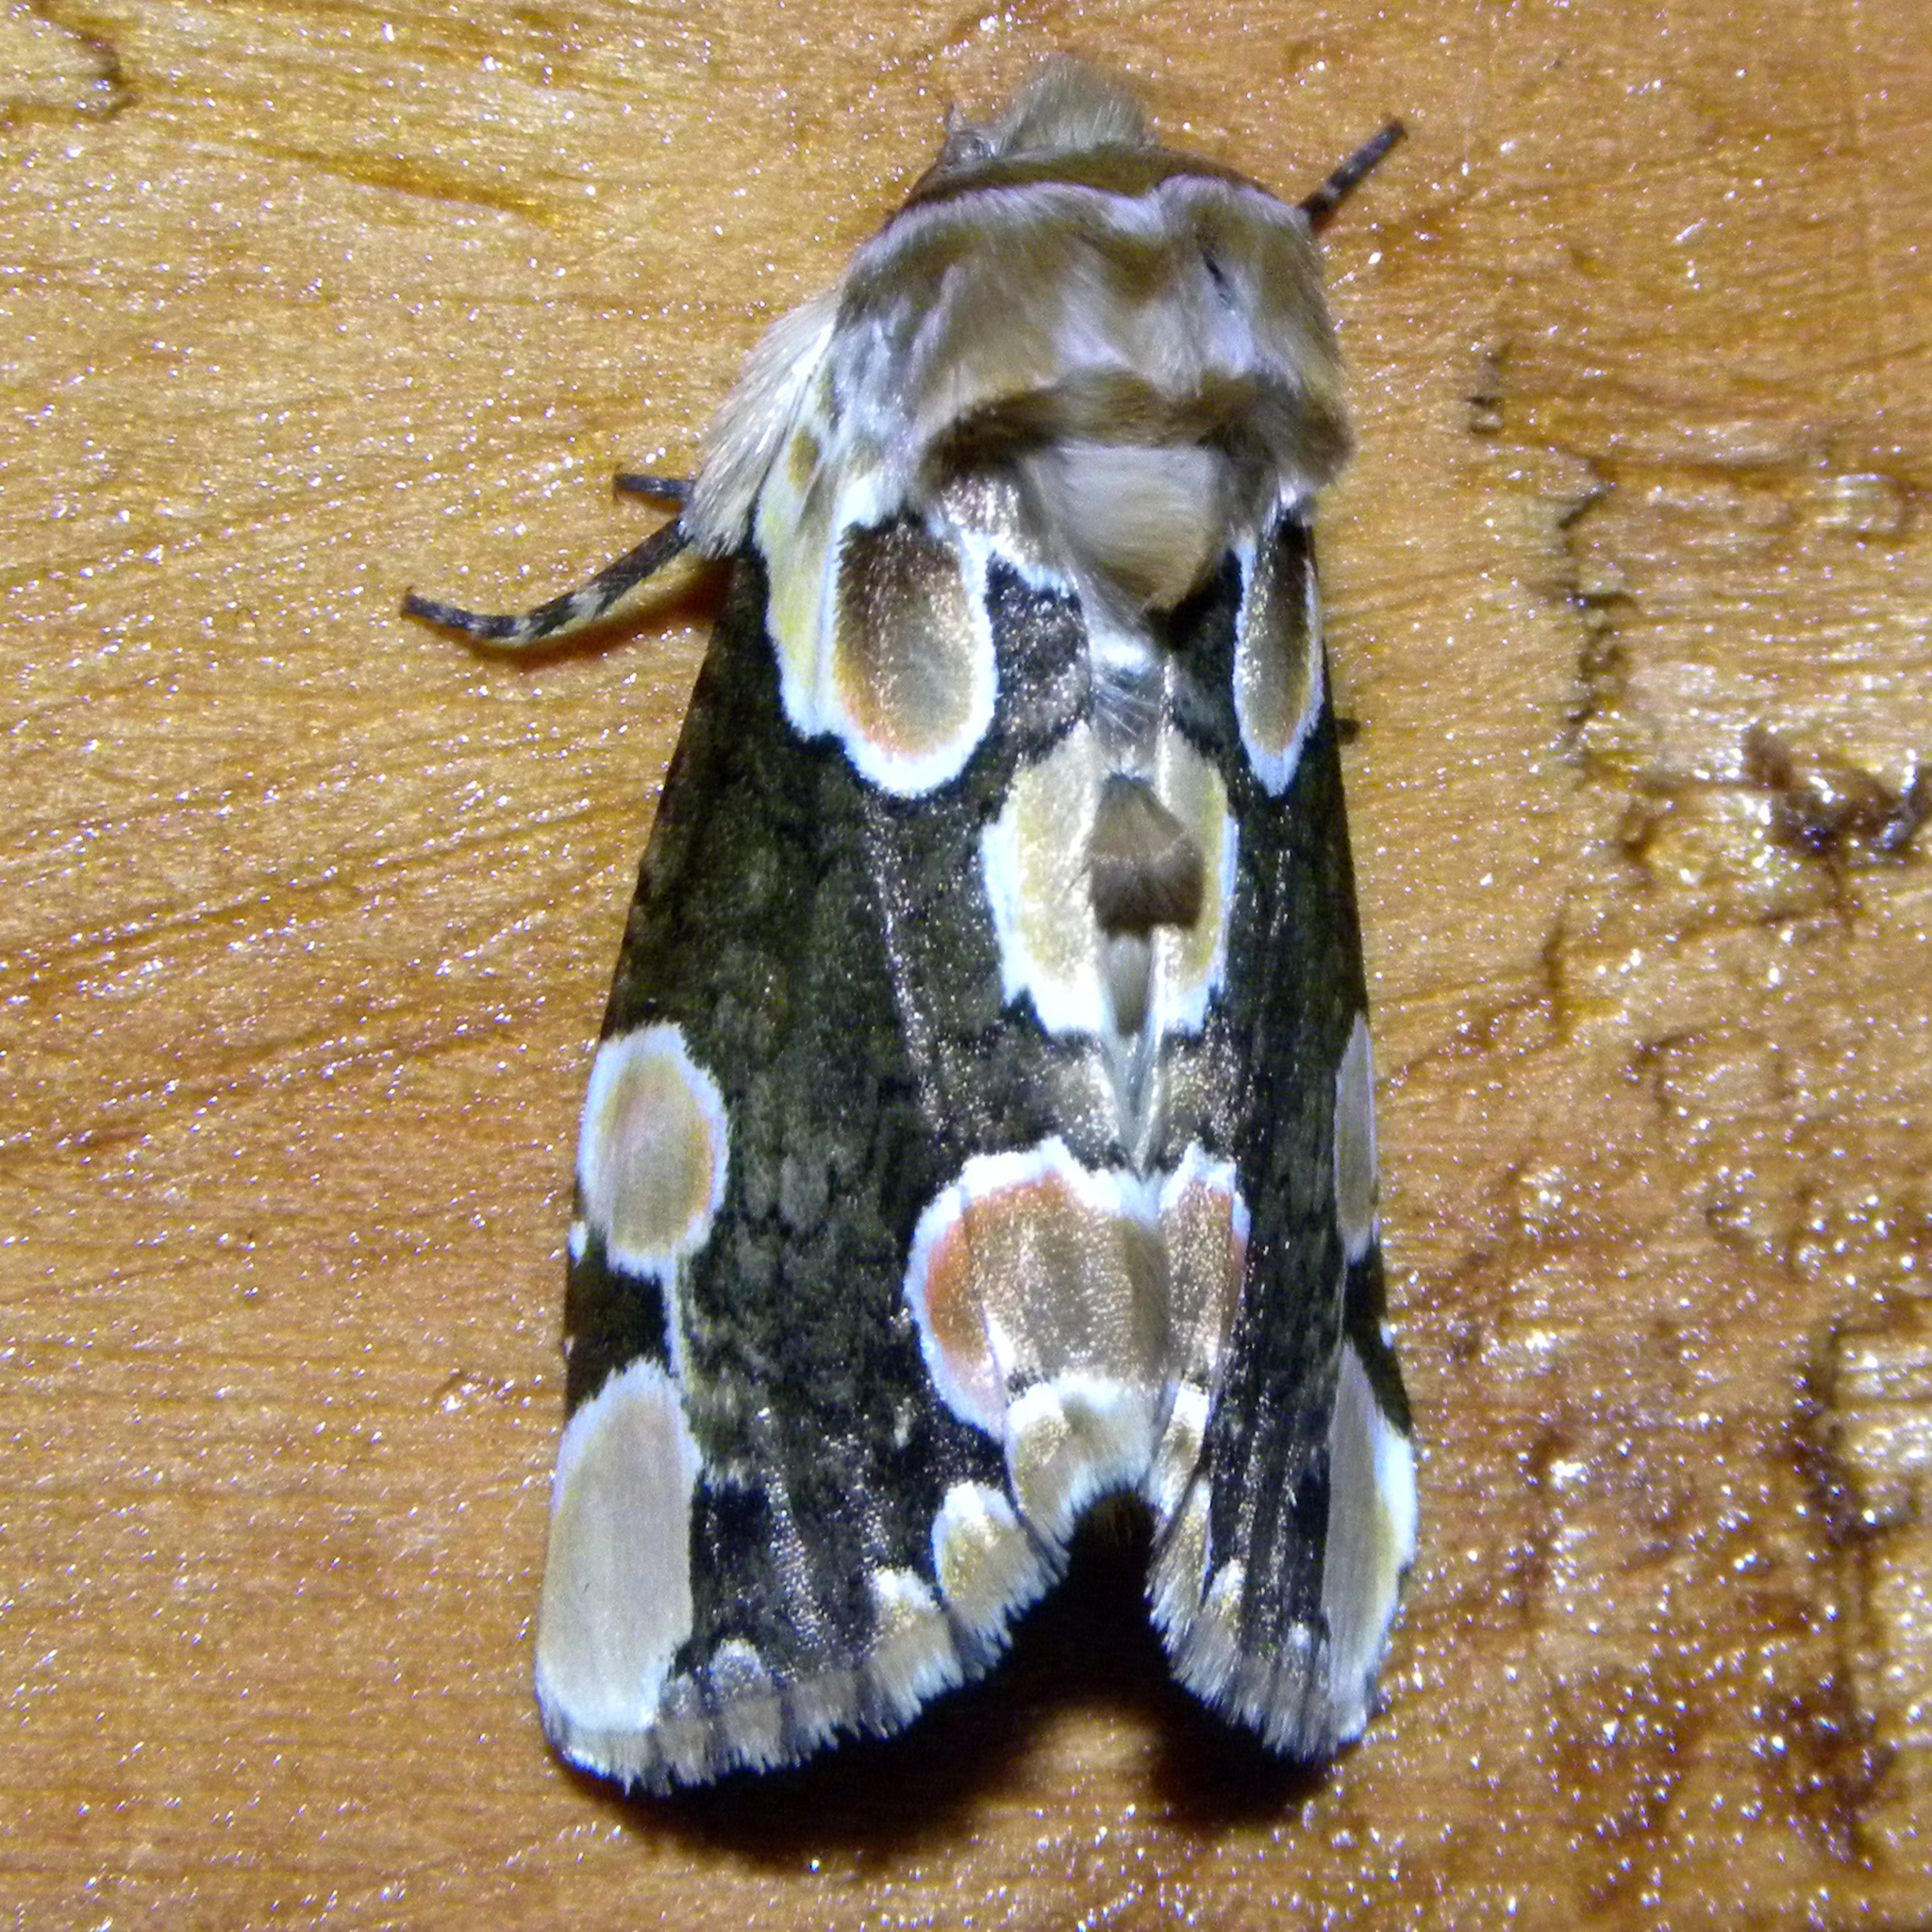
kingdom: Animalia
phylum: Arthropoda
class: Insecta
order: Lepidoptera
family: Drepanidae
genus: Thyatira
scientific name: Thyatira mexicana
